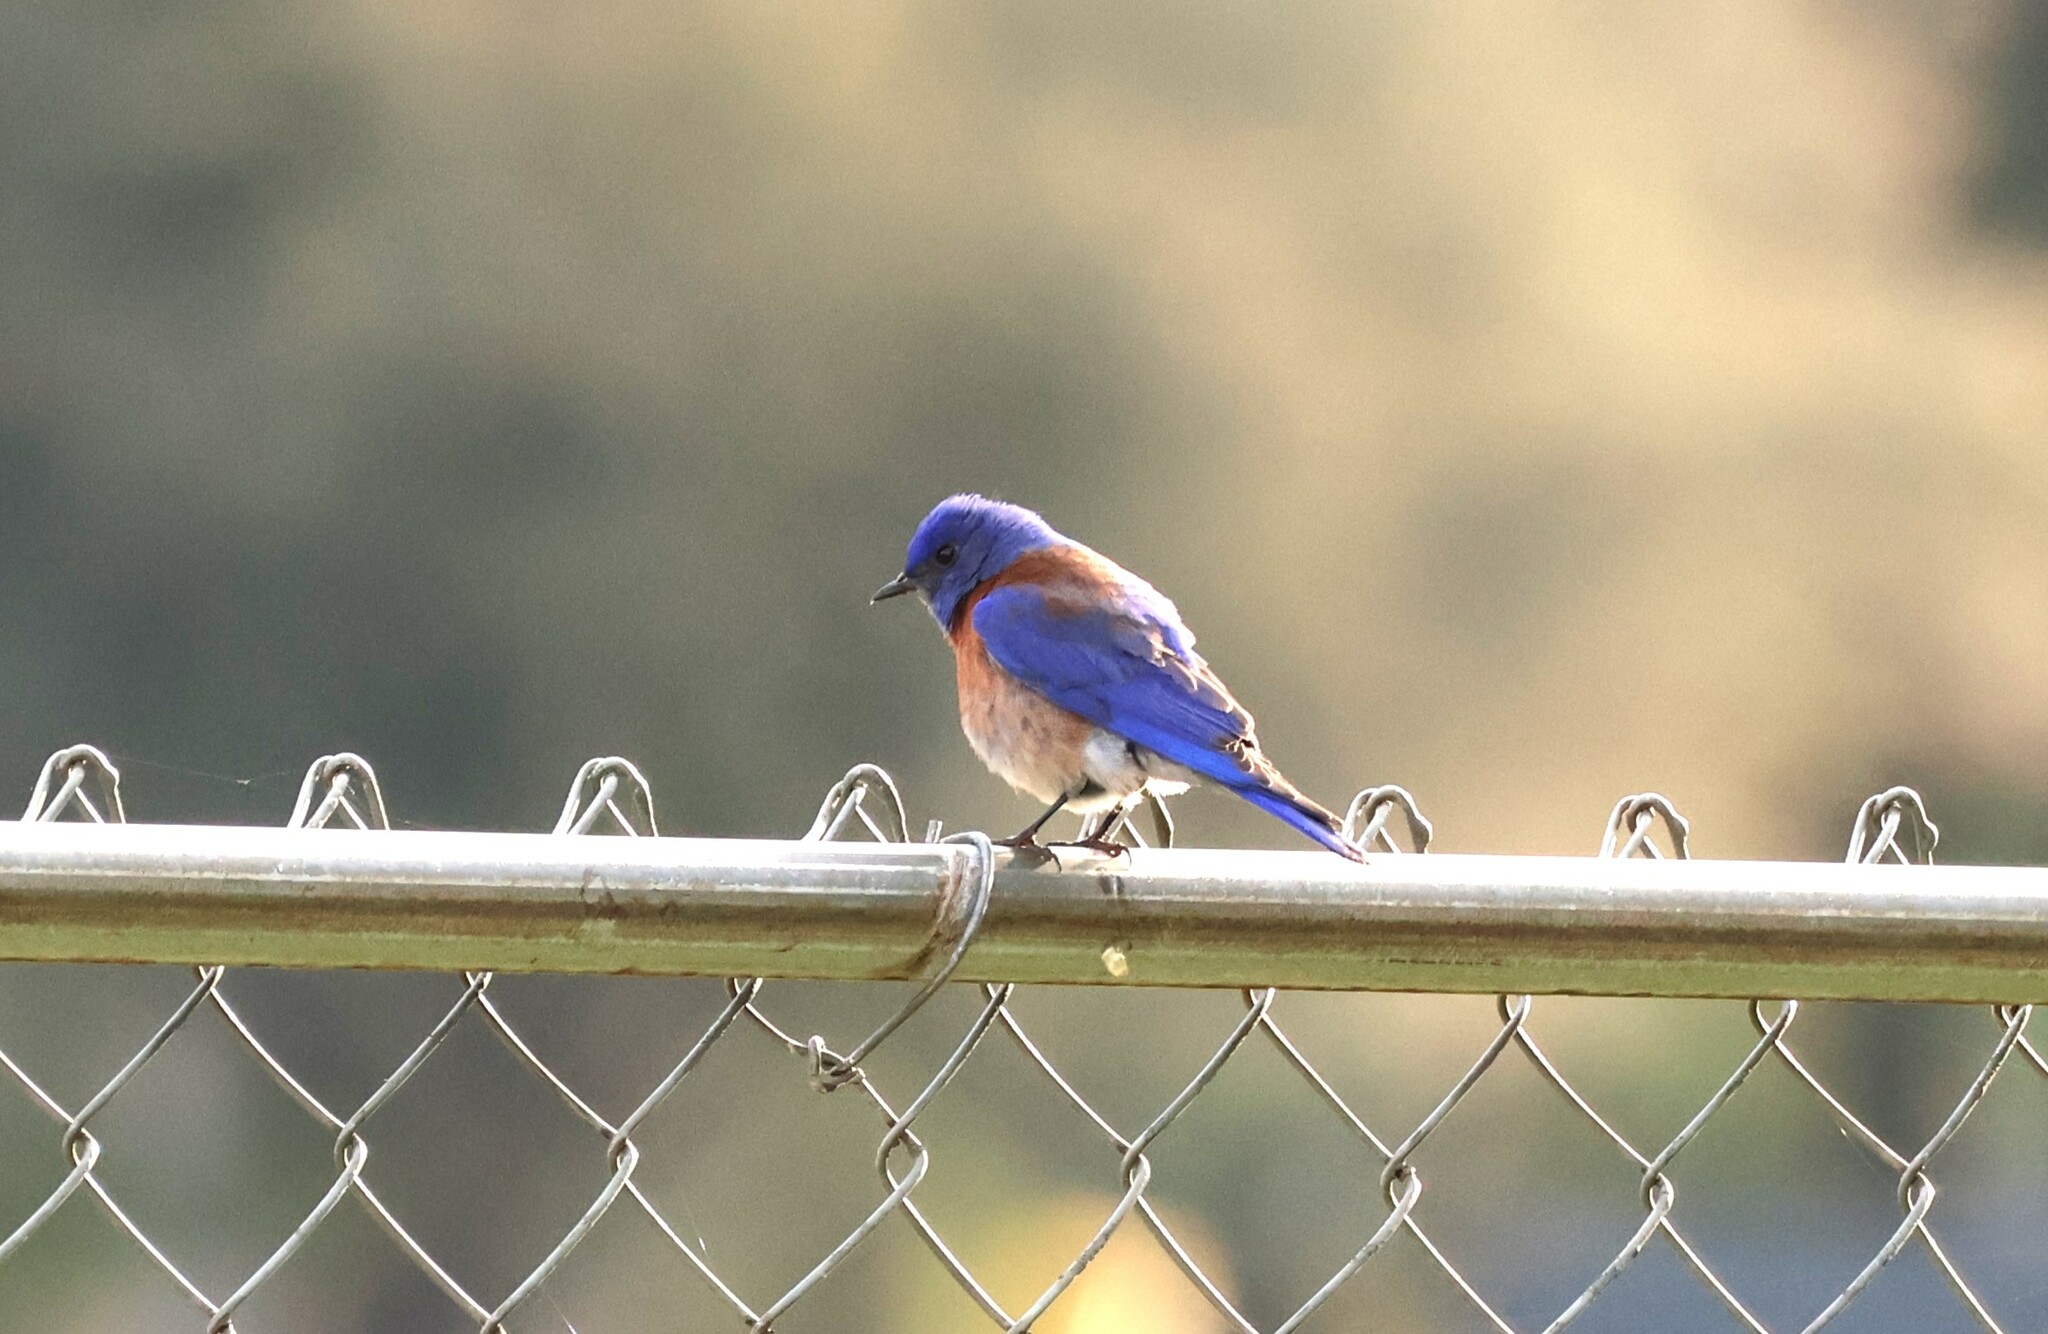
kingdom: Animalia
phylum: Chordata
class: Aves
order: Passeriformes
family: Turdidae
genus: Sialia
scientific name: Sialia mexicana
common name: Western bluebird
